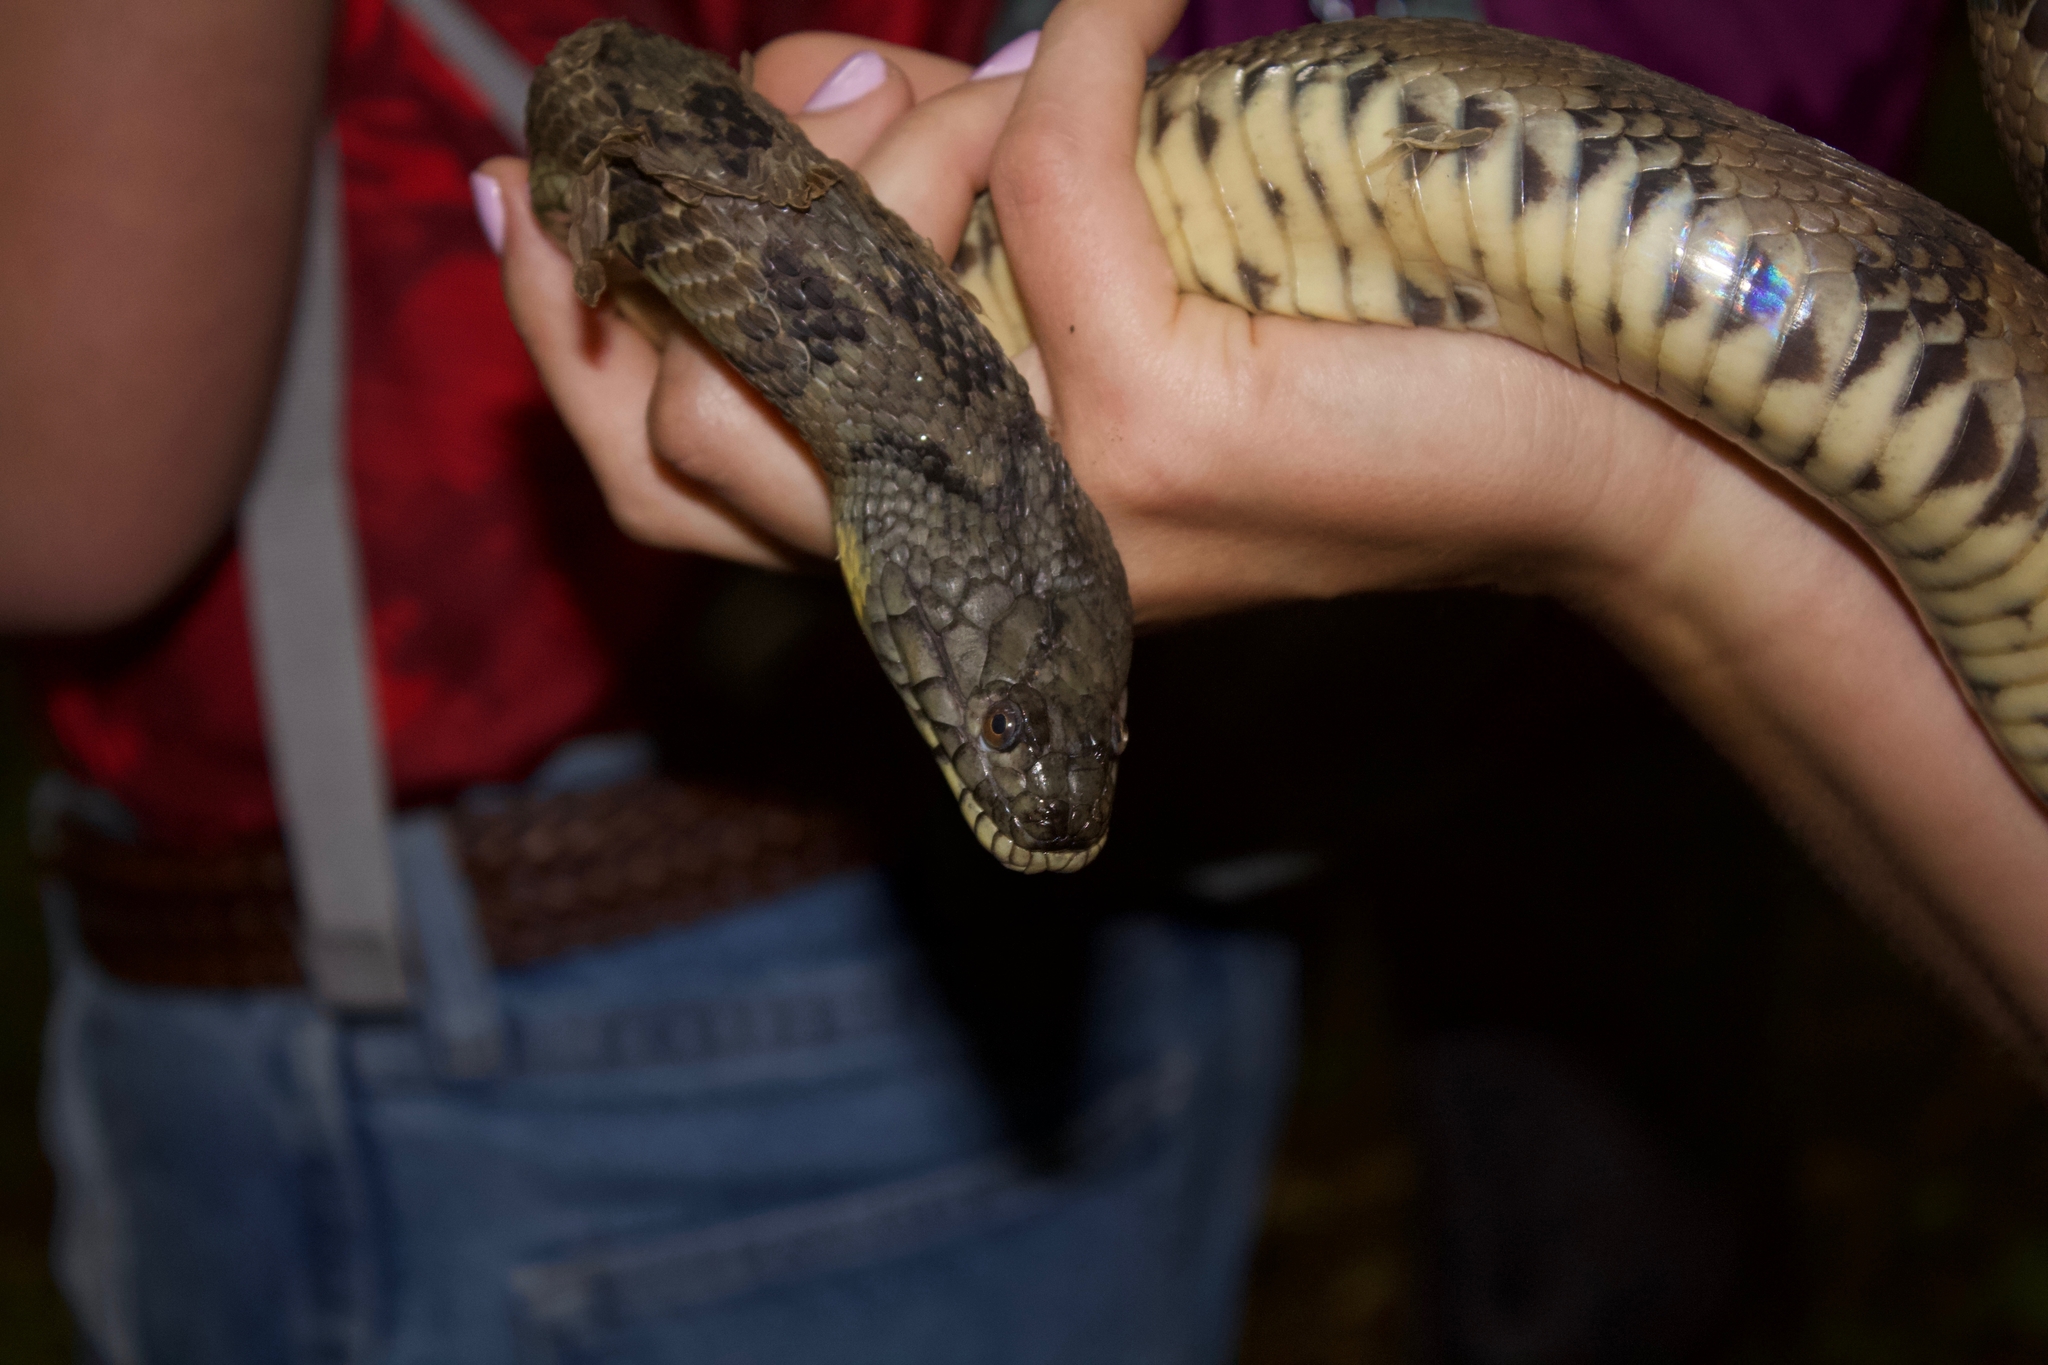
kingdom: Animalia
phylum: Chordata
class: Squamata
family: Colubridae
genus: Nerodia
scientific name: Nerodia rhombifer
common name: Diamondback water snake
